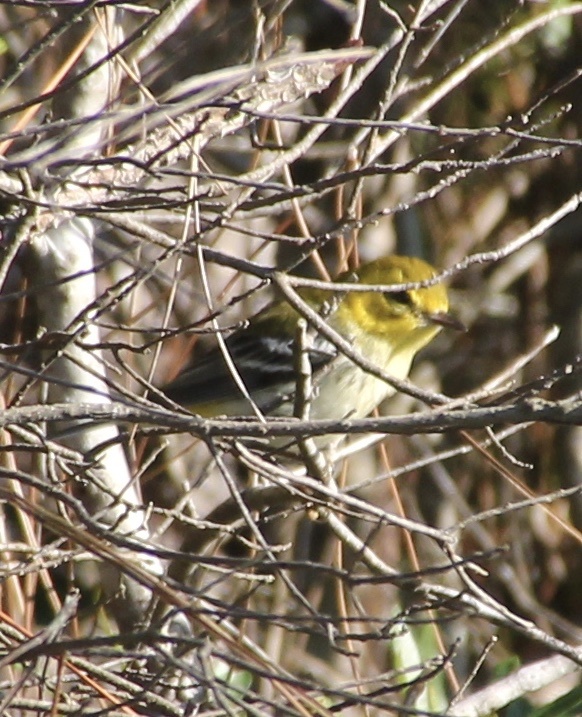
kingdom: Animalia
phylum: Chordata
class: Aves
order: Passeriformes
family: Parulidae
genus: Setophaga
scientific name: Setophaga virens
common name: Black-throated green warbler
